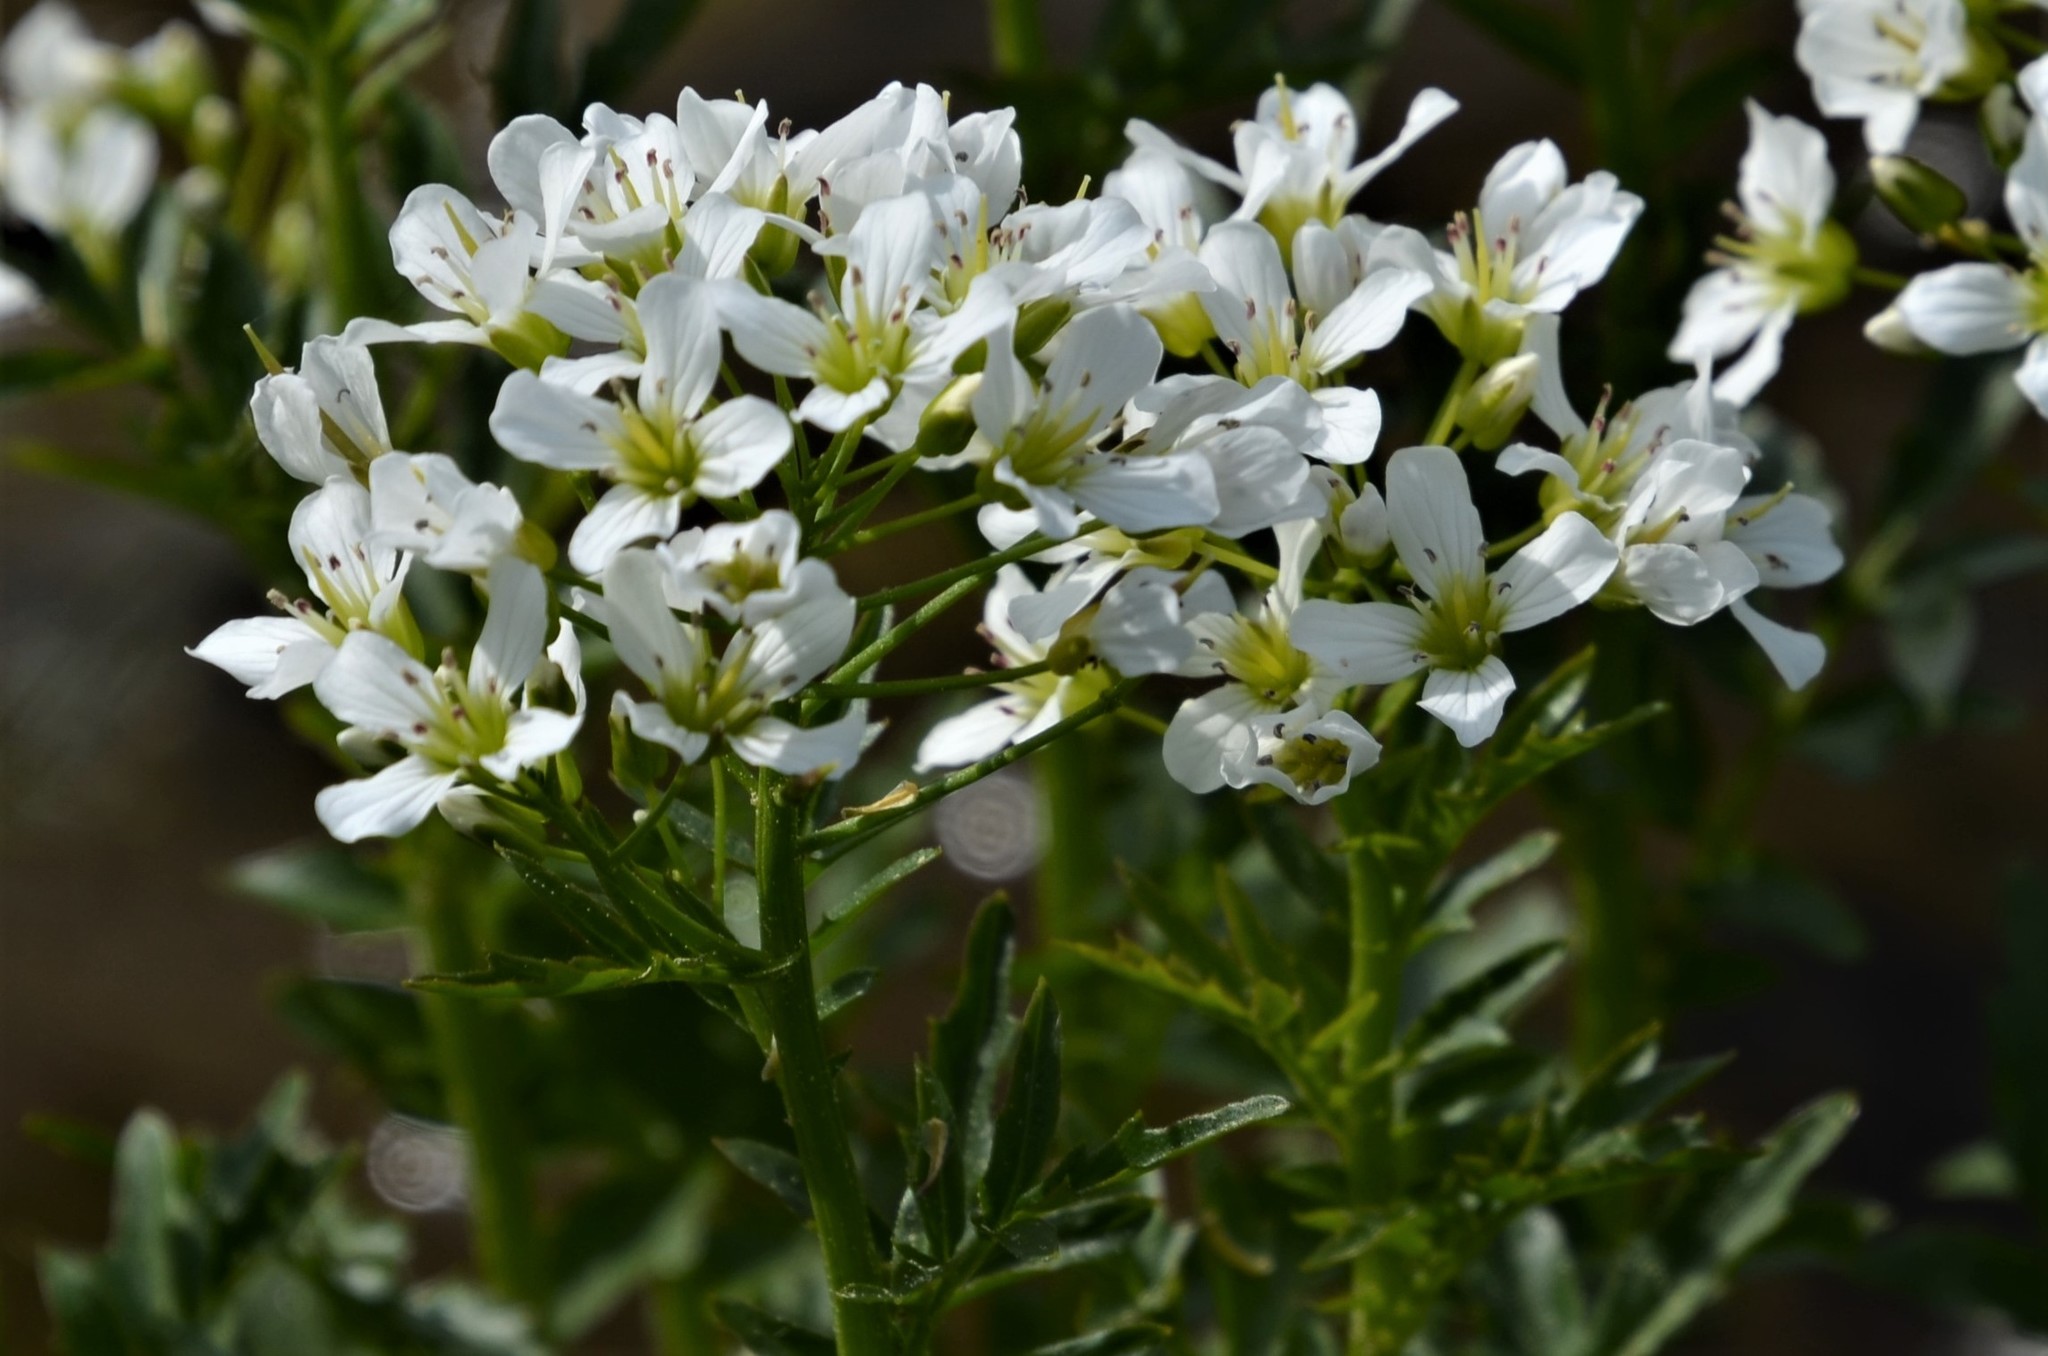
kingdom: Plantae
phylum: Tracheophyta
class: Magnoliopsida
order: Brassicales
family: Brassicaceae
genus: Cardamine
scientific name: Cardamine amara
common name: Large bitter-cress
